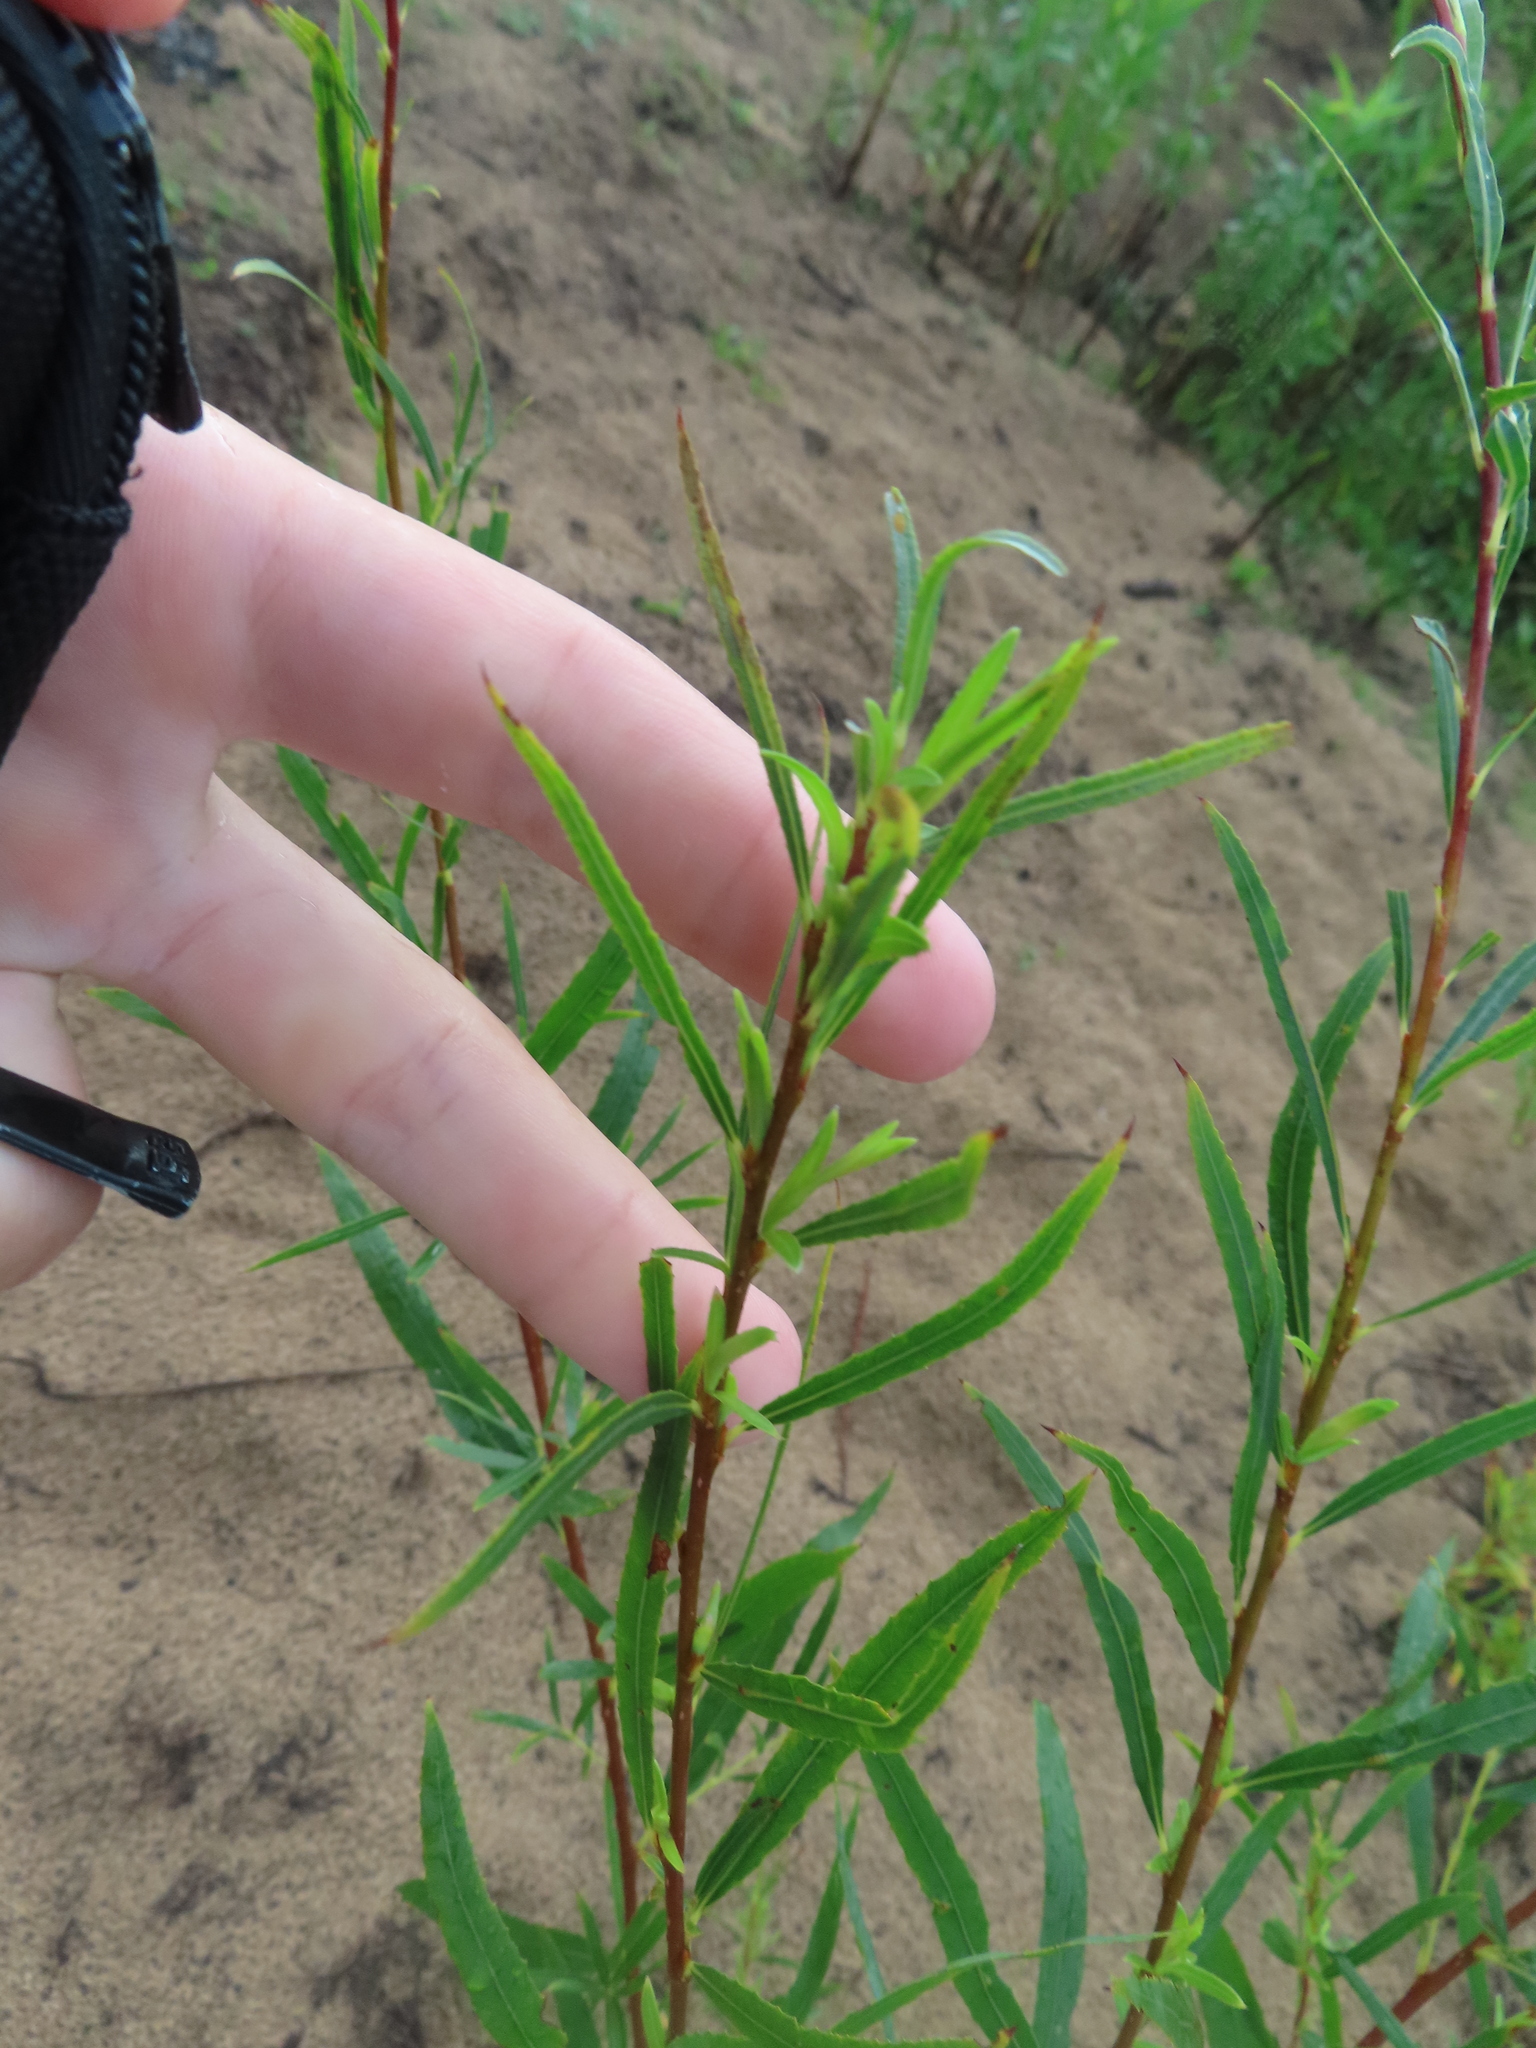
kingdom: Plantae
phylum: Tracheophyta
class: Magnoliopsida
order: Malpighiales
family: Salicaceae
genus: Salix
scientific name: Salix interior
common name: Sandbar willow
